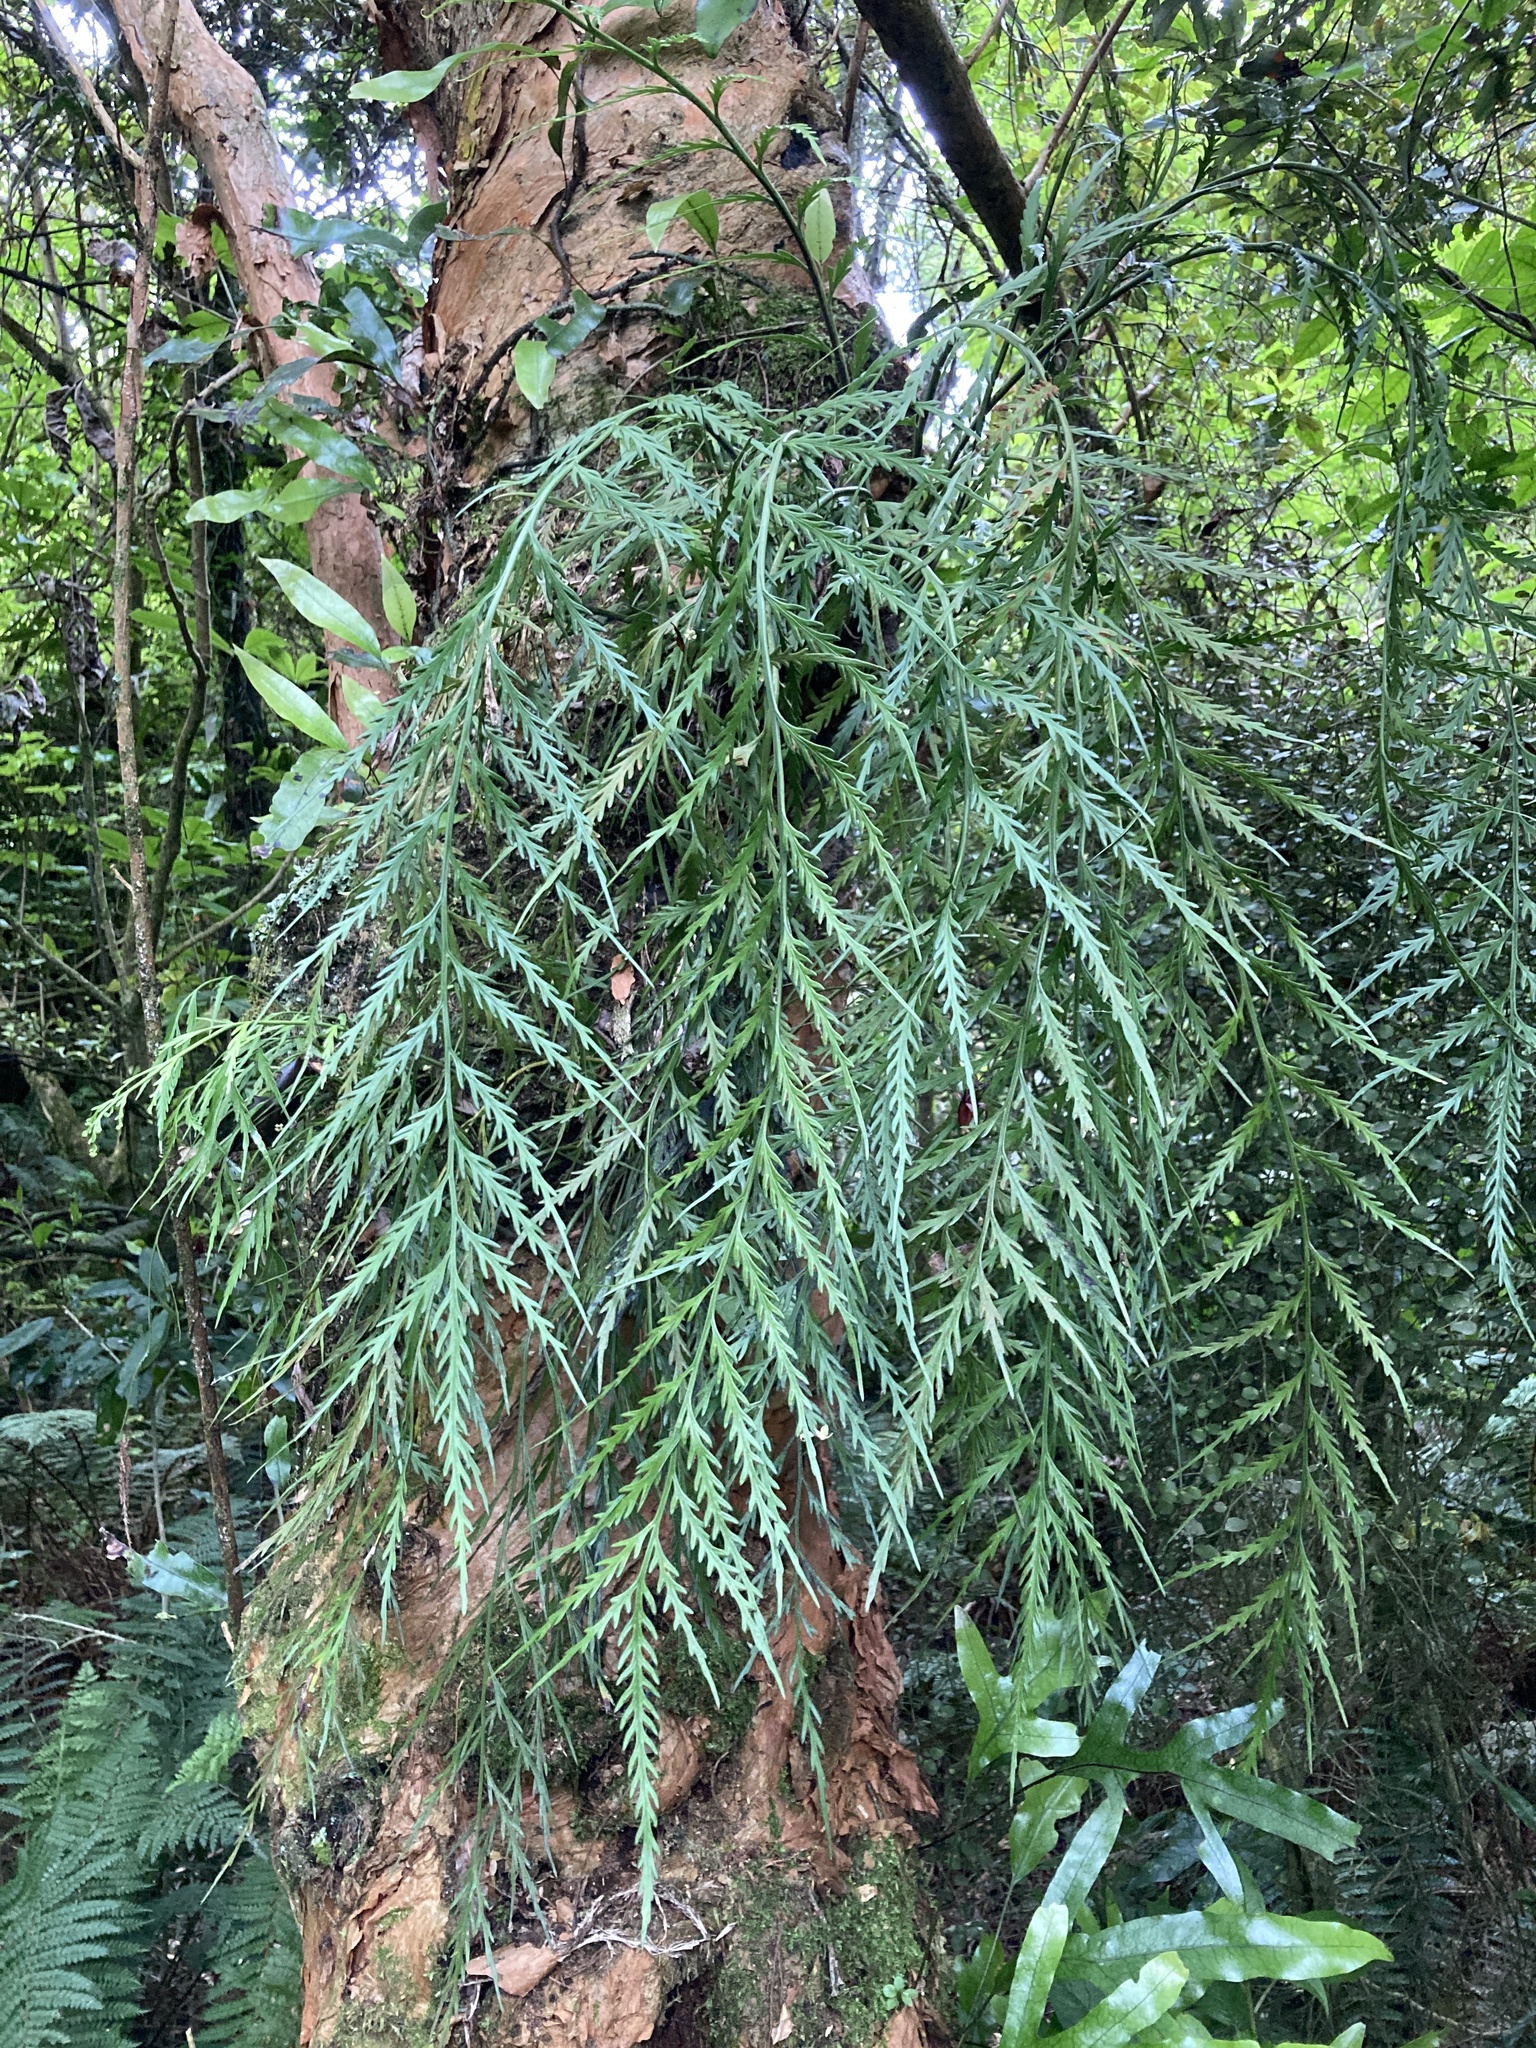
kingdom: Plantae
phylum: Tracheophyta
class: Polypodiopsida
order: Polypodiales
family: Aspleniaceae
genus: Asplenium
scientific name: Asplenium flaccidum
